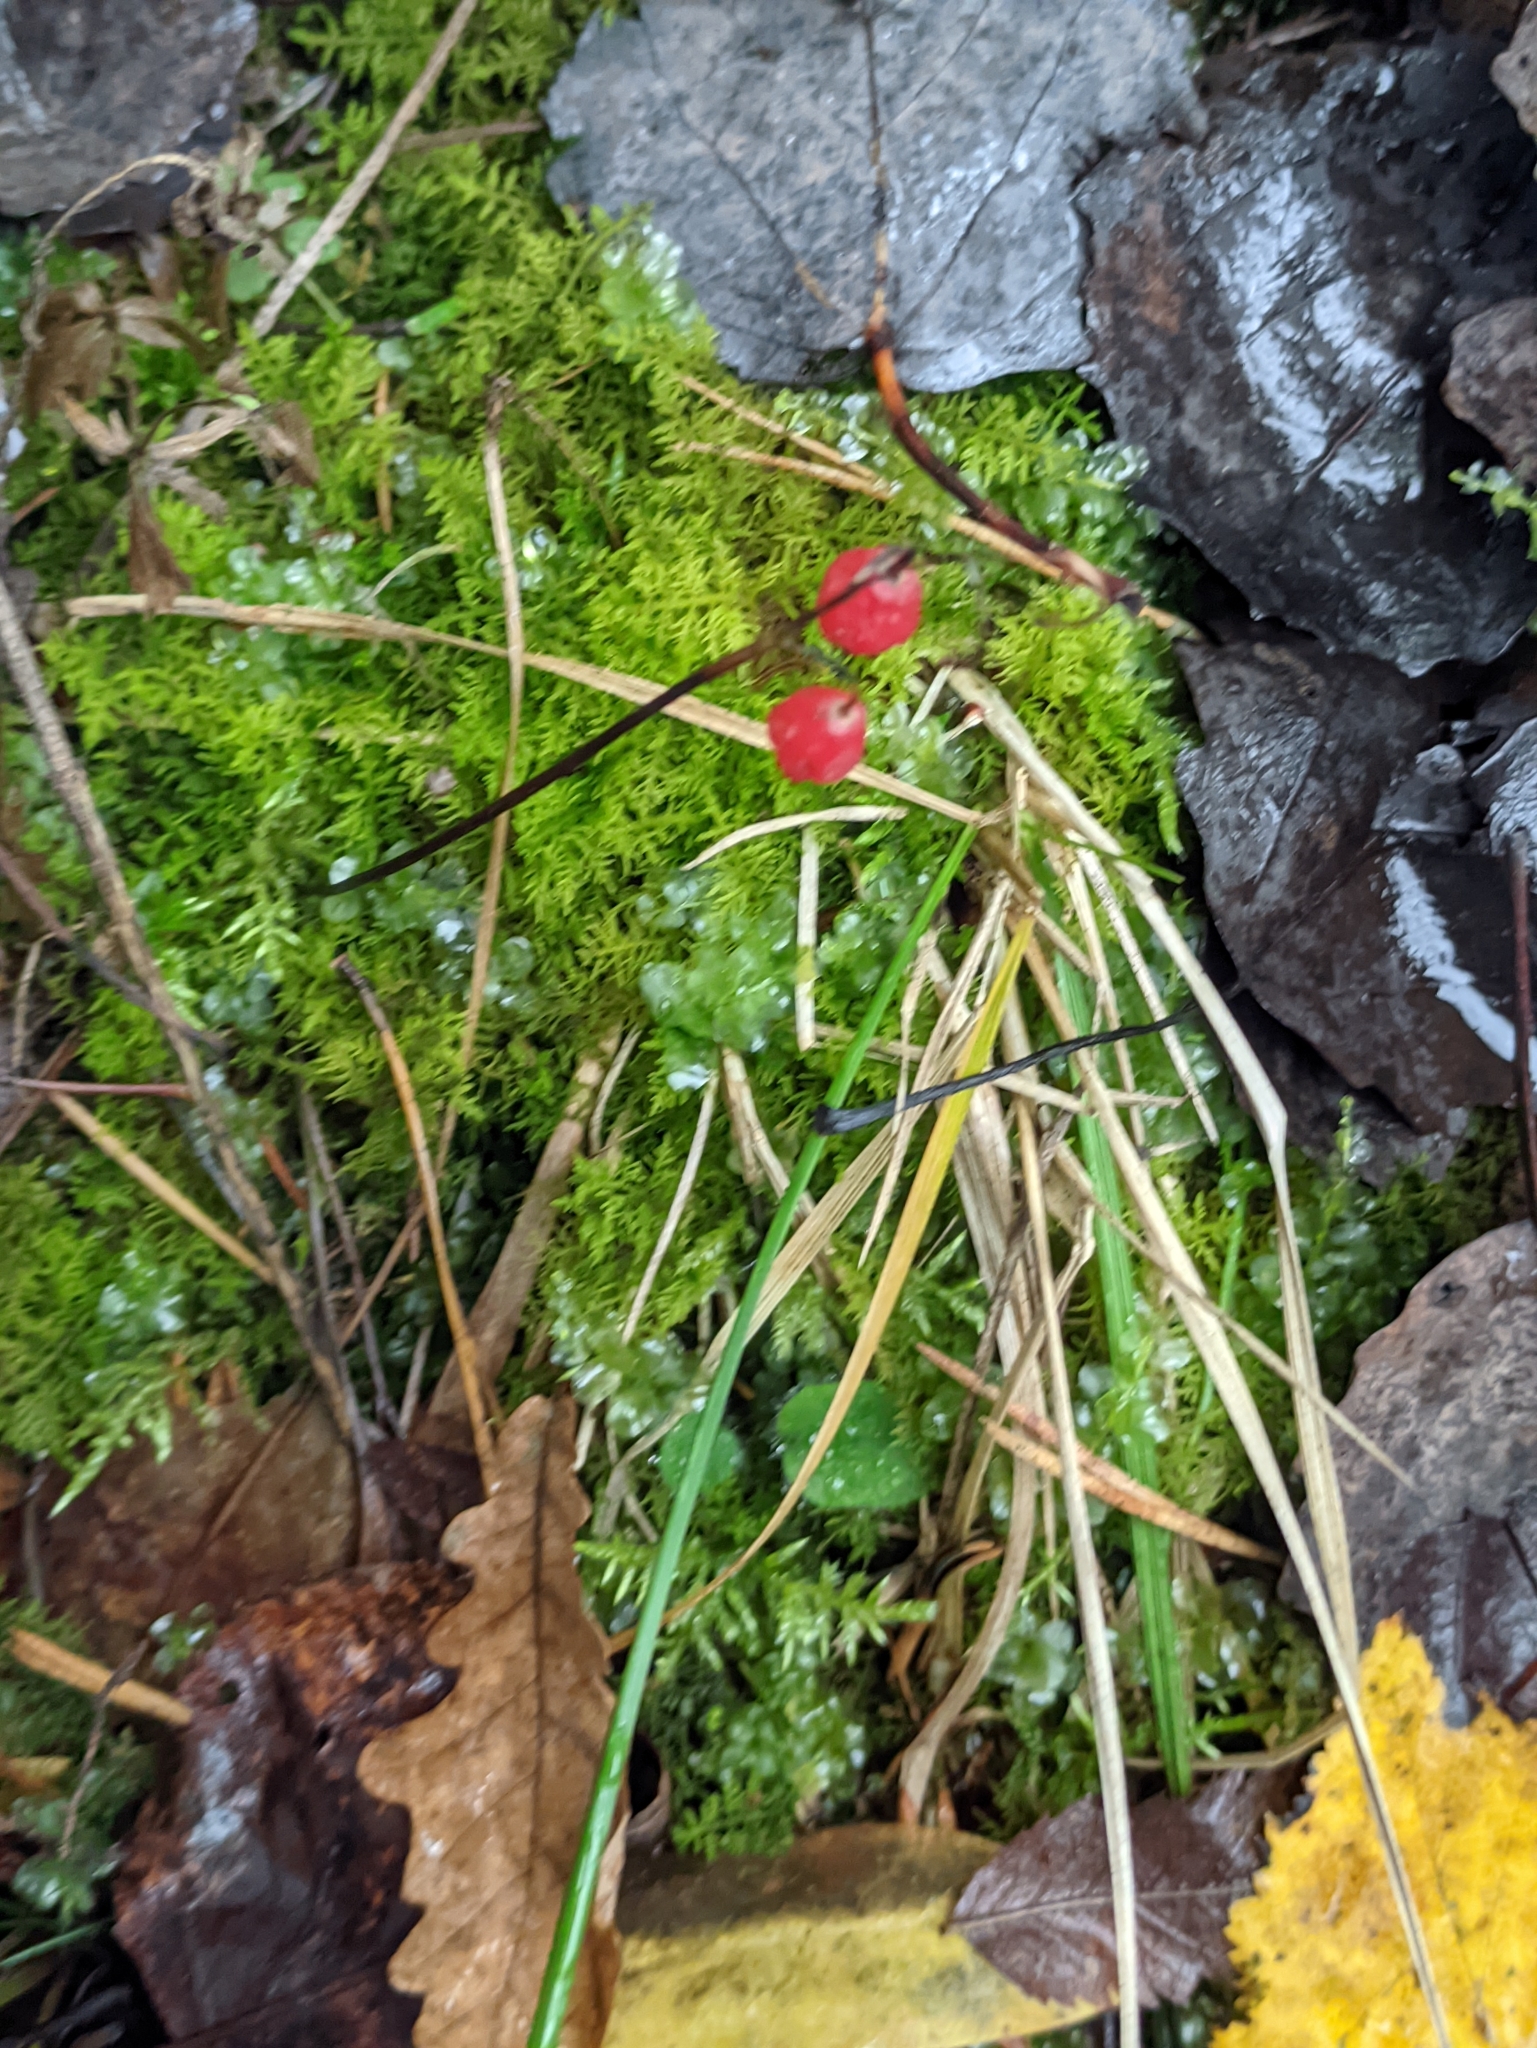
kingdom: Plantae
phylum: Tracheophyta
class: Liliopsida
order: Asparagales
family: Asparagaceae
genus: Convallaria
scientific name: Convallaria majalis
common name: Lily-of-the-valley
